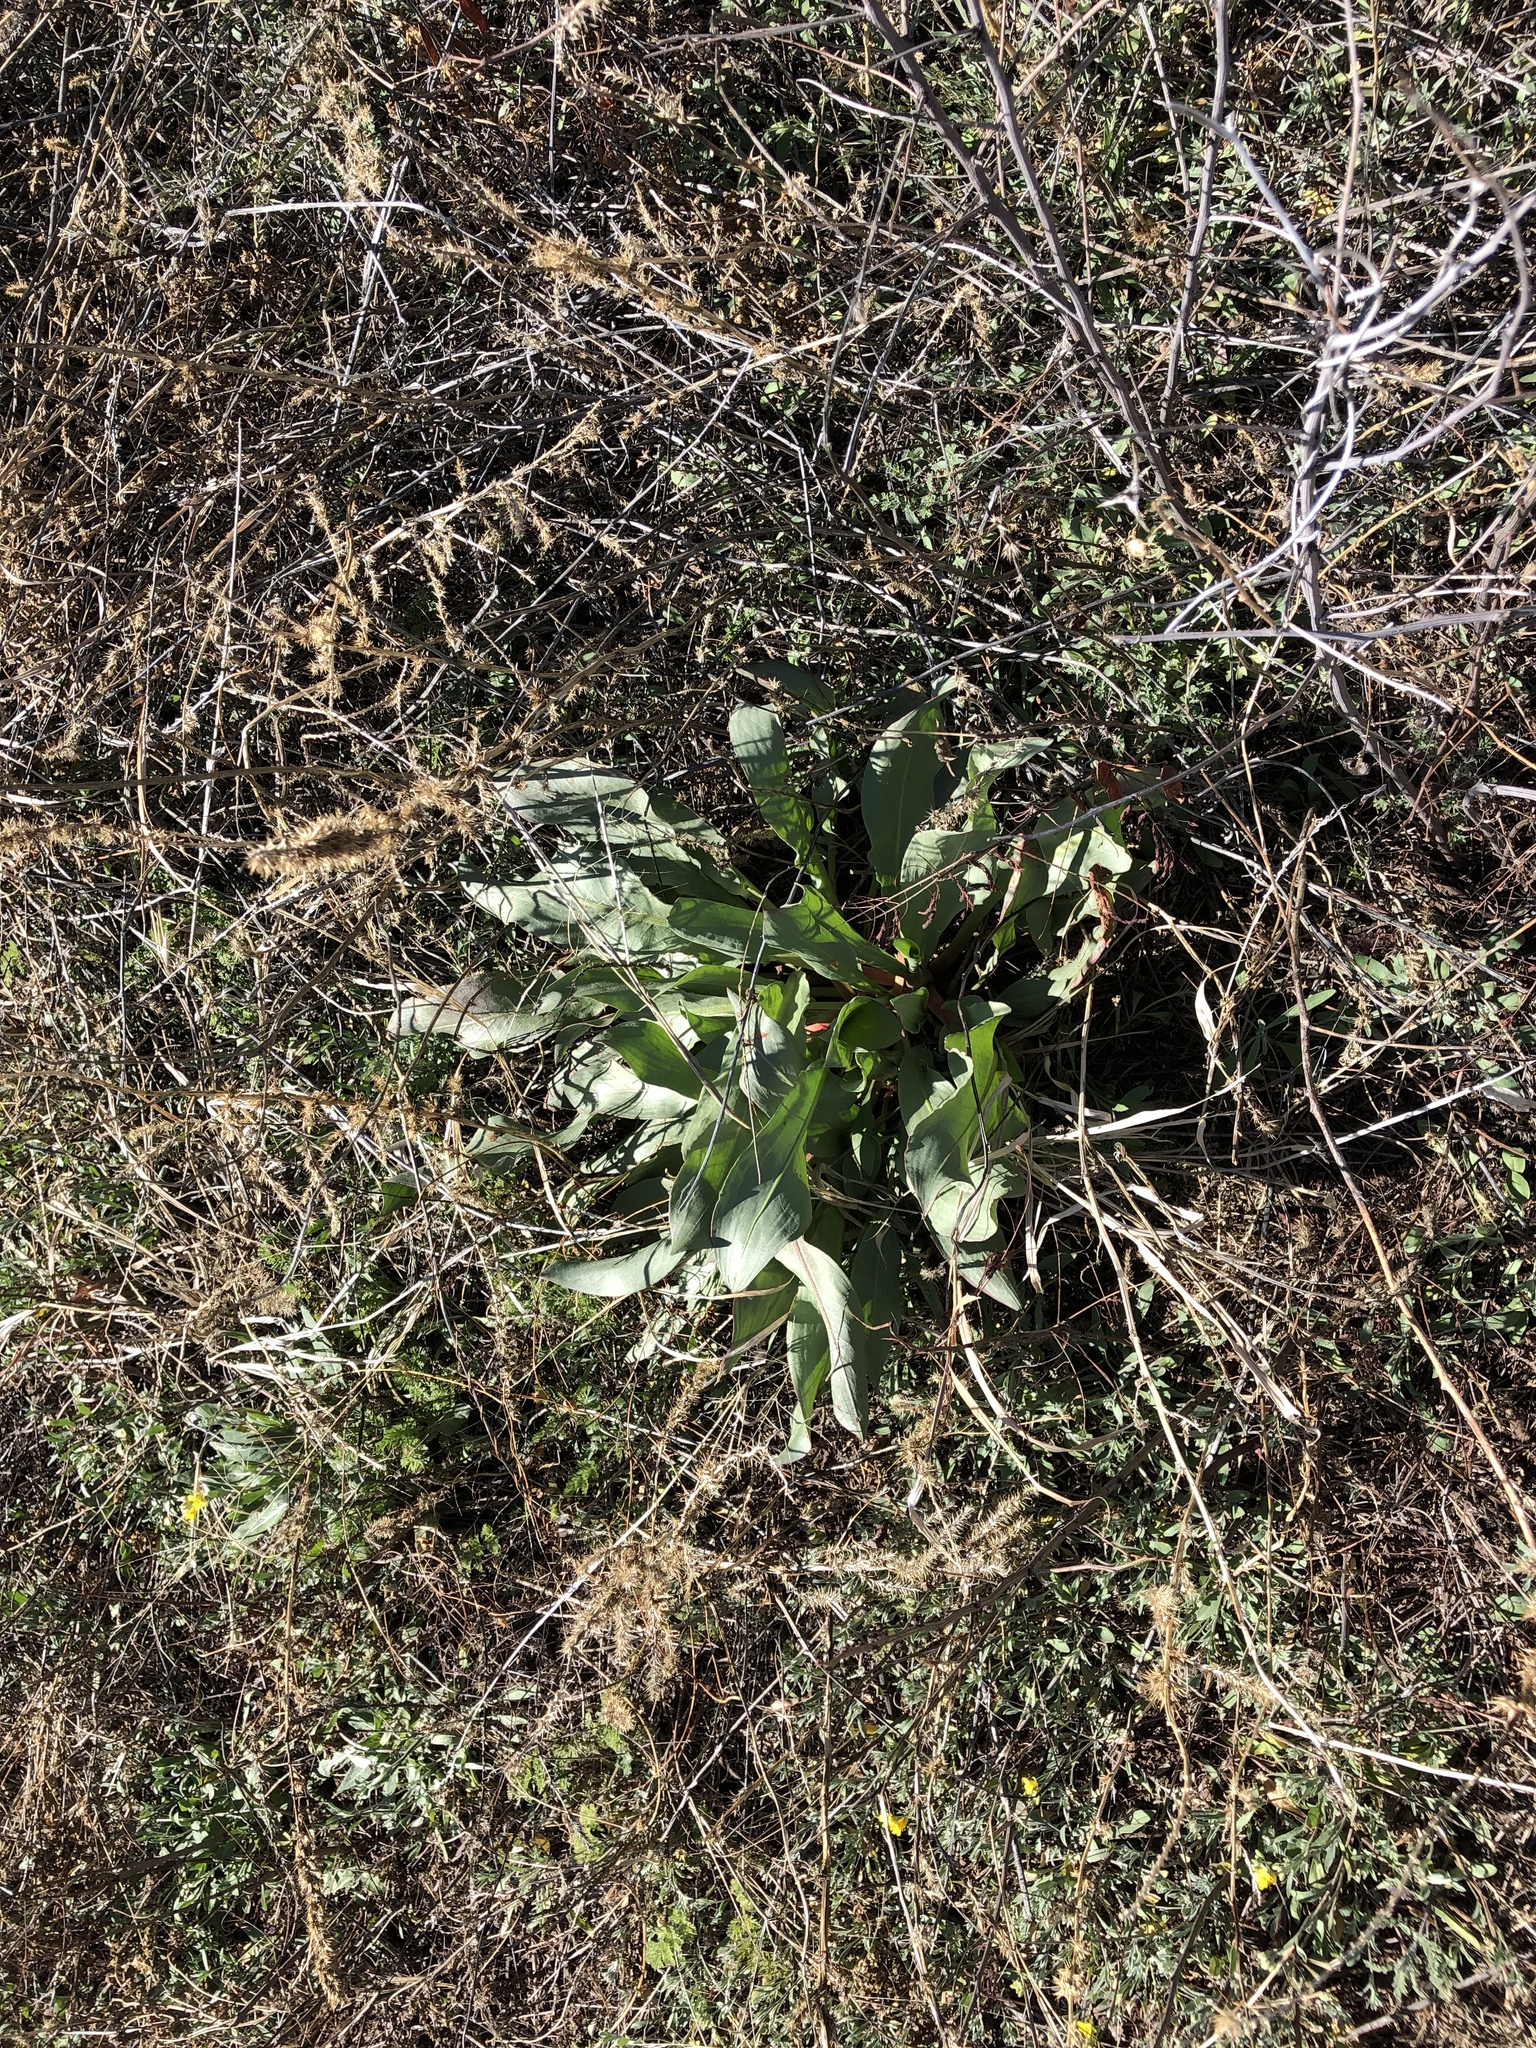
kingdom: Plantae
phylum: Tracheophyta
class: Magnoliopsida
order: Caryophyllales
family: Polygonaceae
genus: Rumex
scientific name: Rumex hymenosepalus
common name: Ganagra
